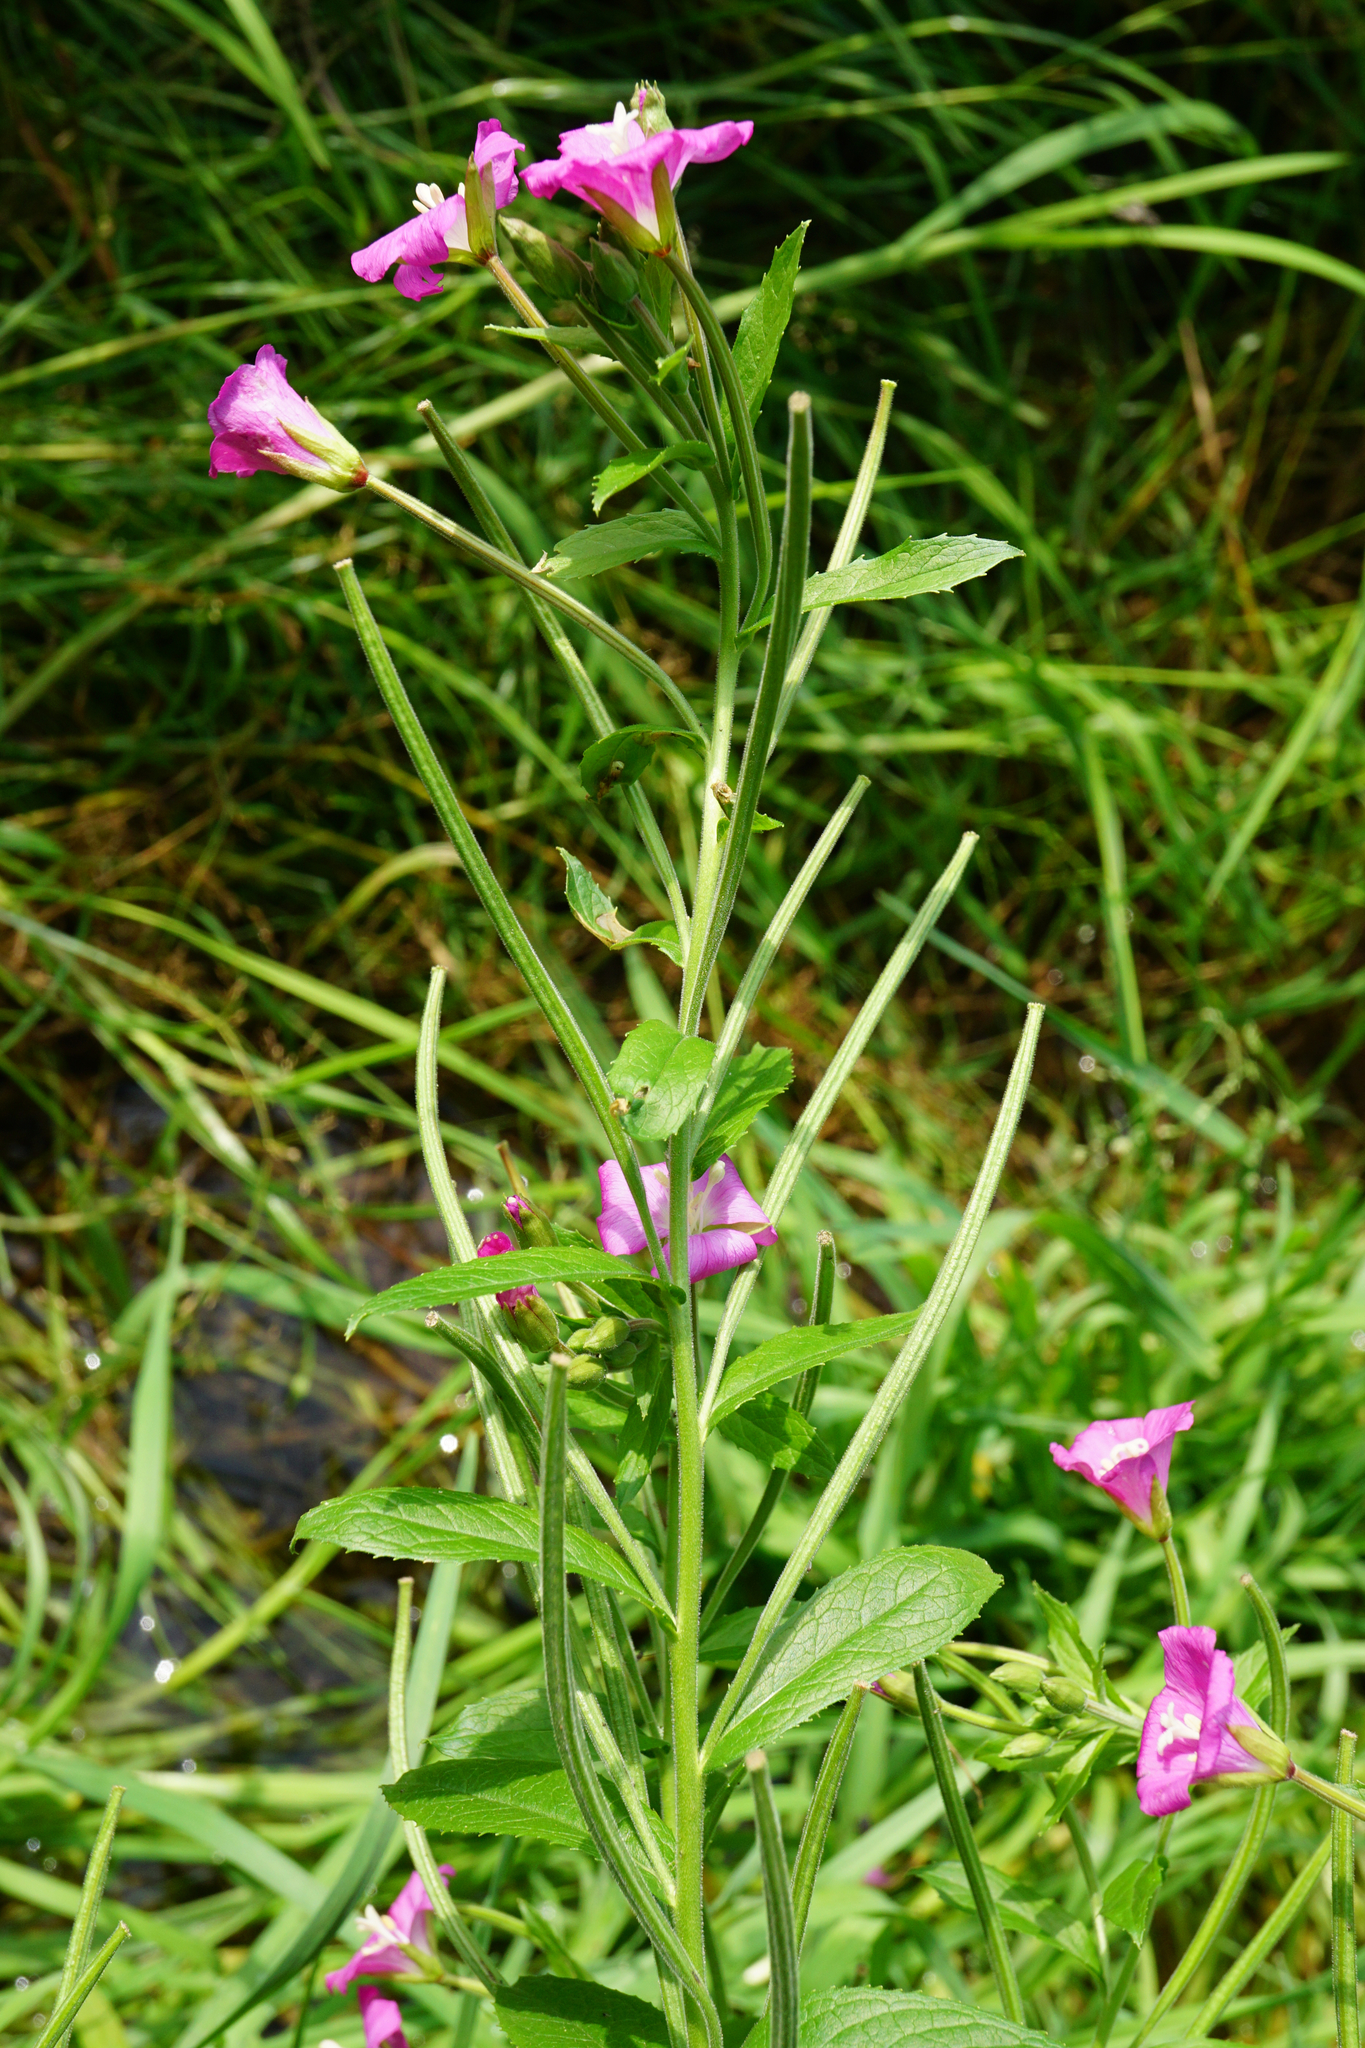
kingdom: Plantae
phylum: Tracheophyta
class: Magnoliopsida
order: Myrtales
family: Onagraceae
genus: Epilobium
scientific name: Epilobium hirsutum
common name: Great willowherb
